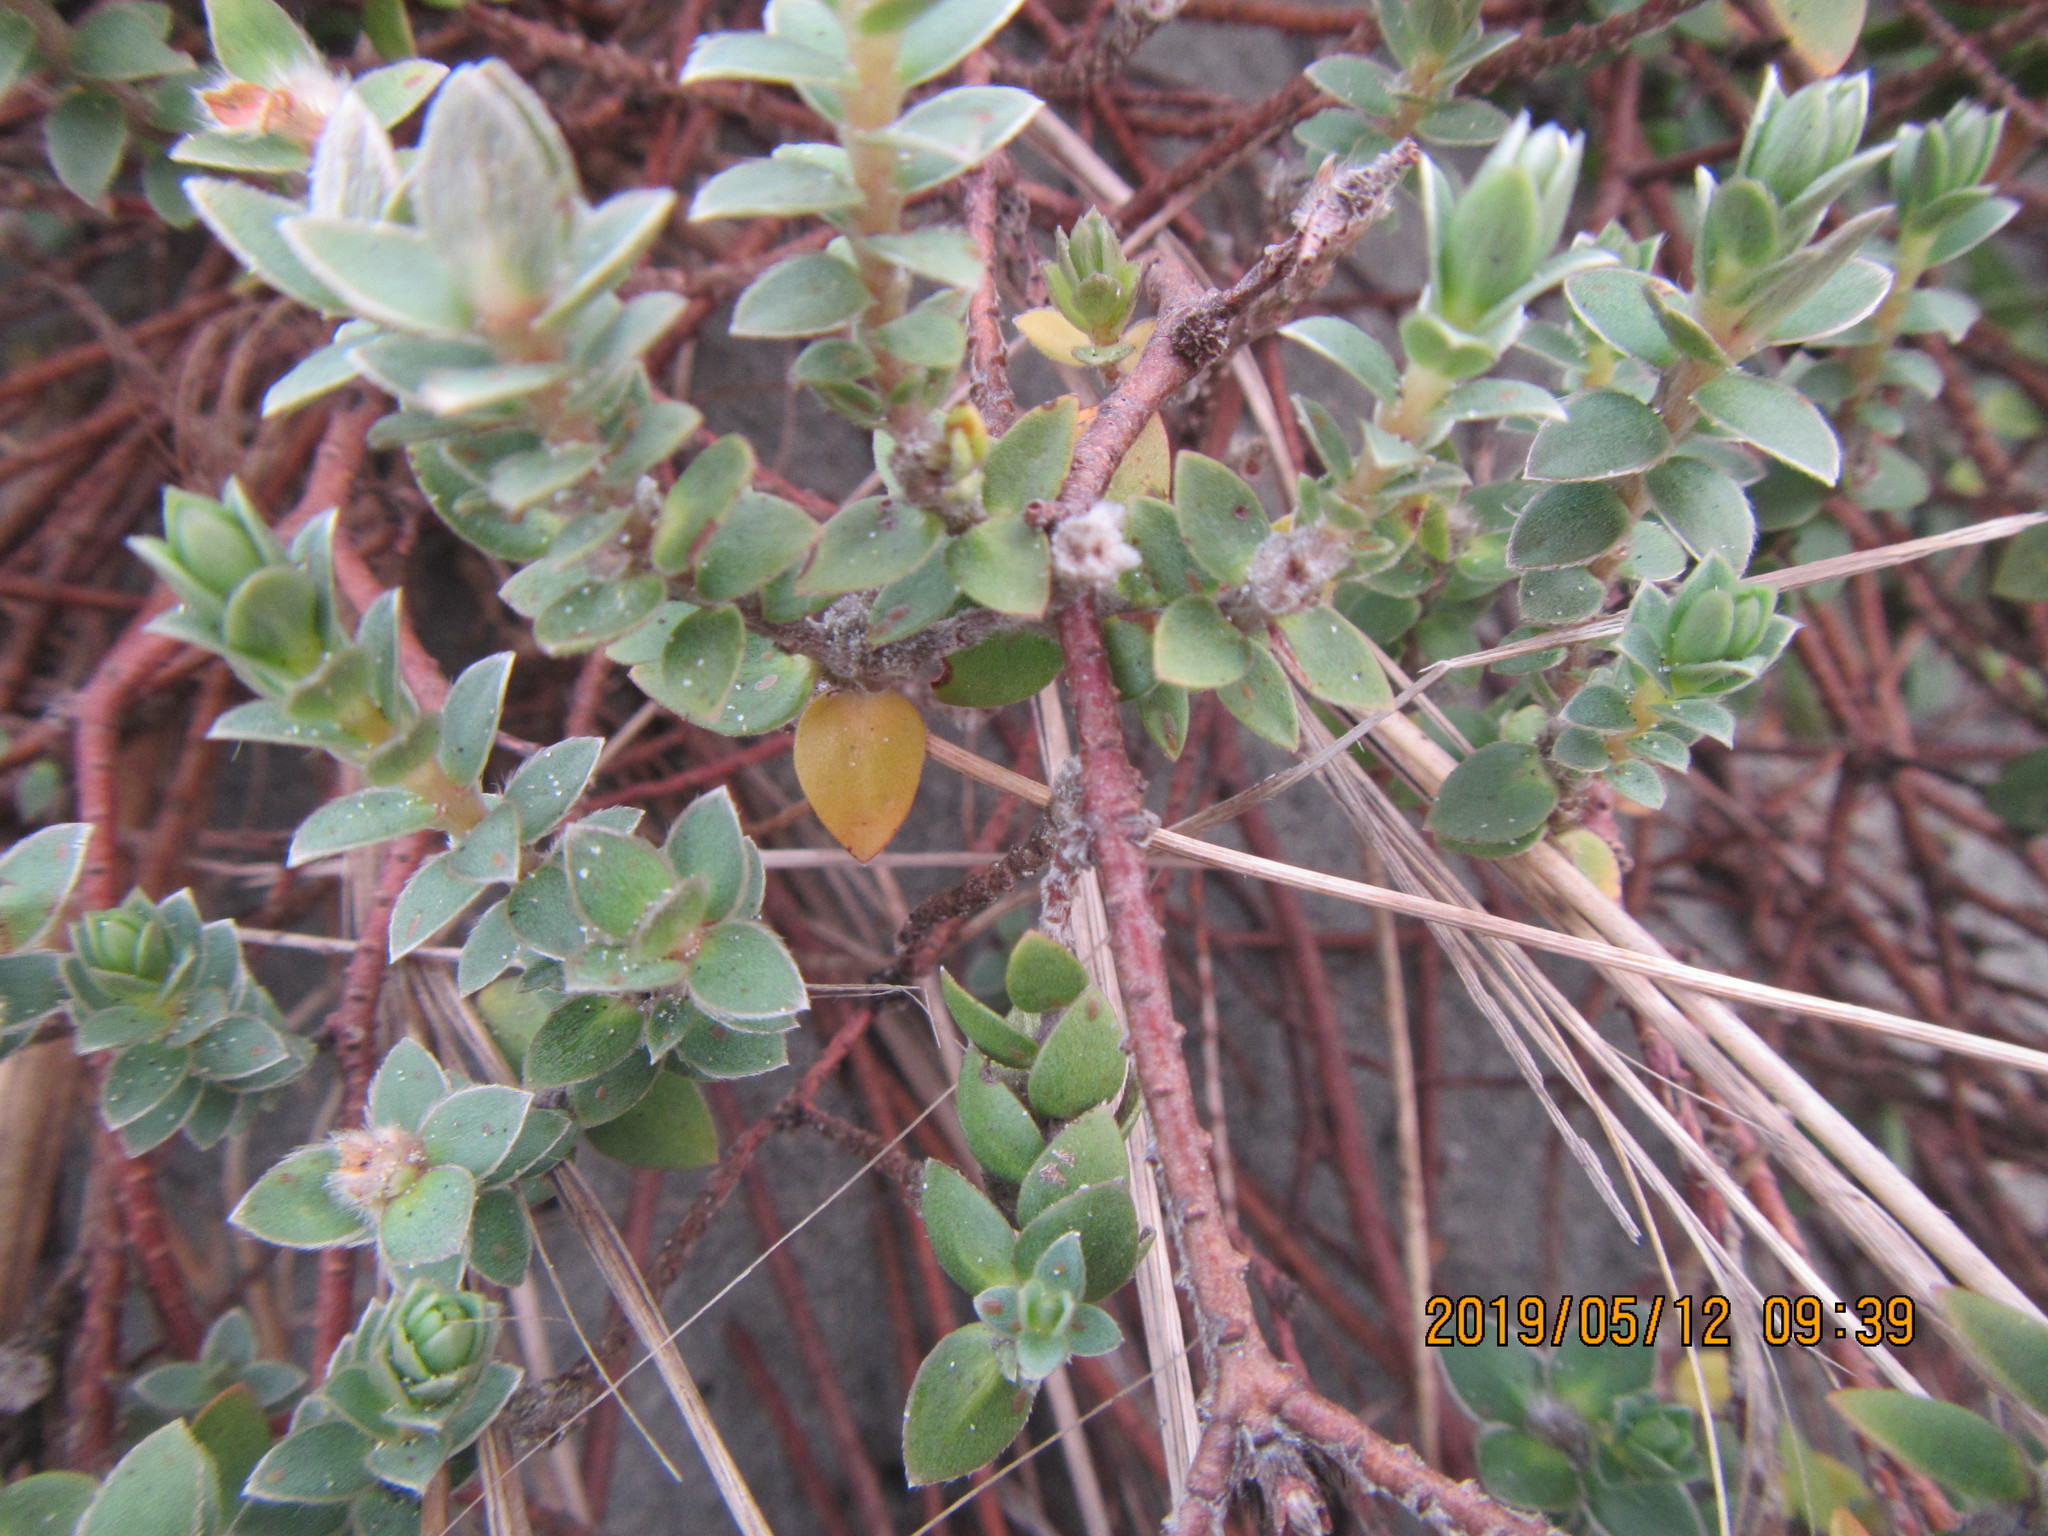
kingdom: Plantae
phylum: Tracheophyta
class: Magnoliopsida
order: Malvales
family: Thymelaeaceae
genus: Pimelea
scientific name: Pimelea villosa
